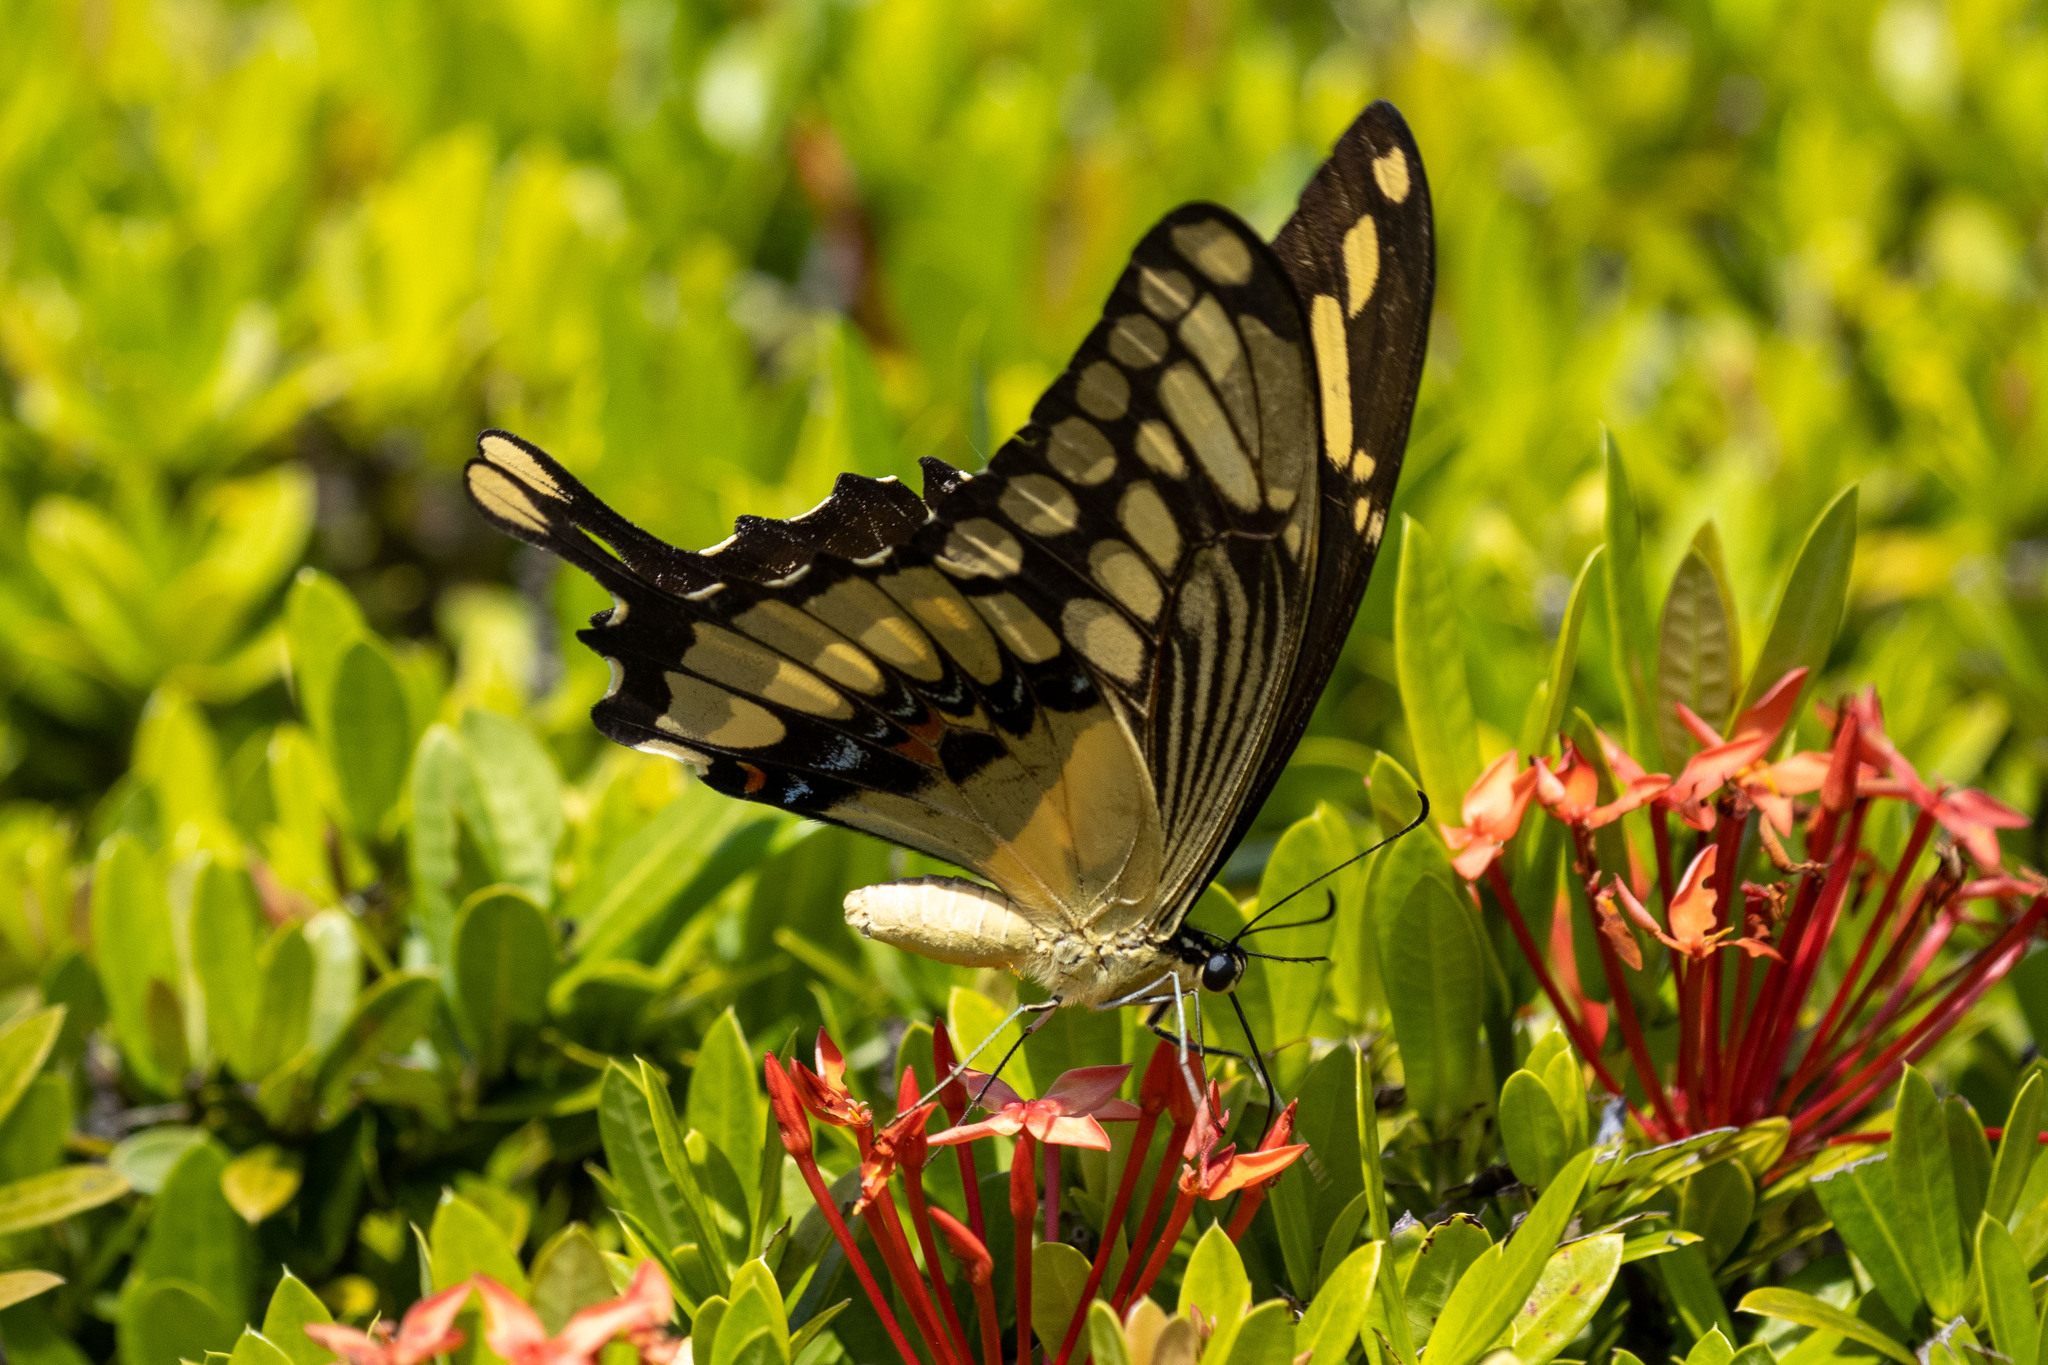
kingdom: Animalia
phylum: Arthropoda
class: Insecta
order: Lepidoptera
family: Papilionidae
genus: Papilio
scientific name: Papilio thoas
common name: King swallowtail
